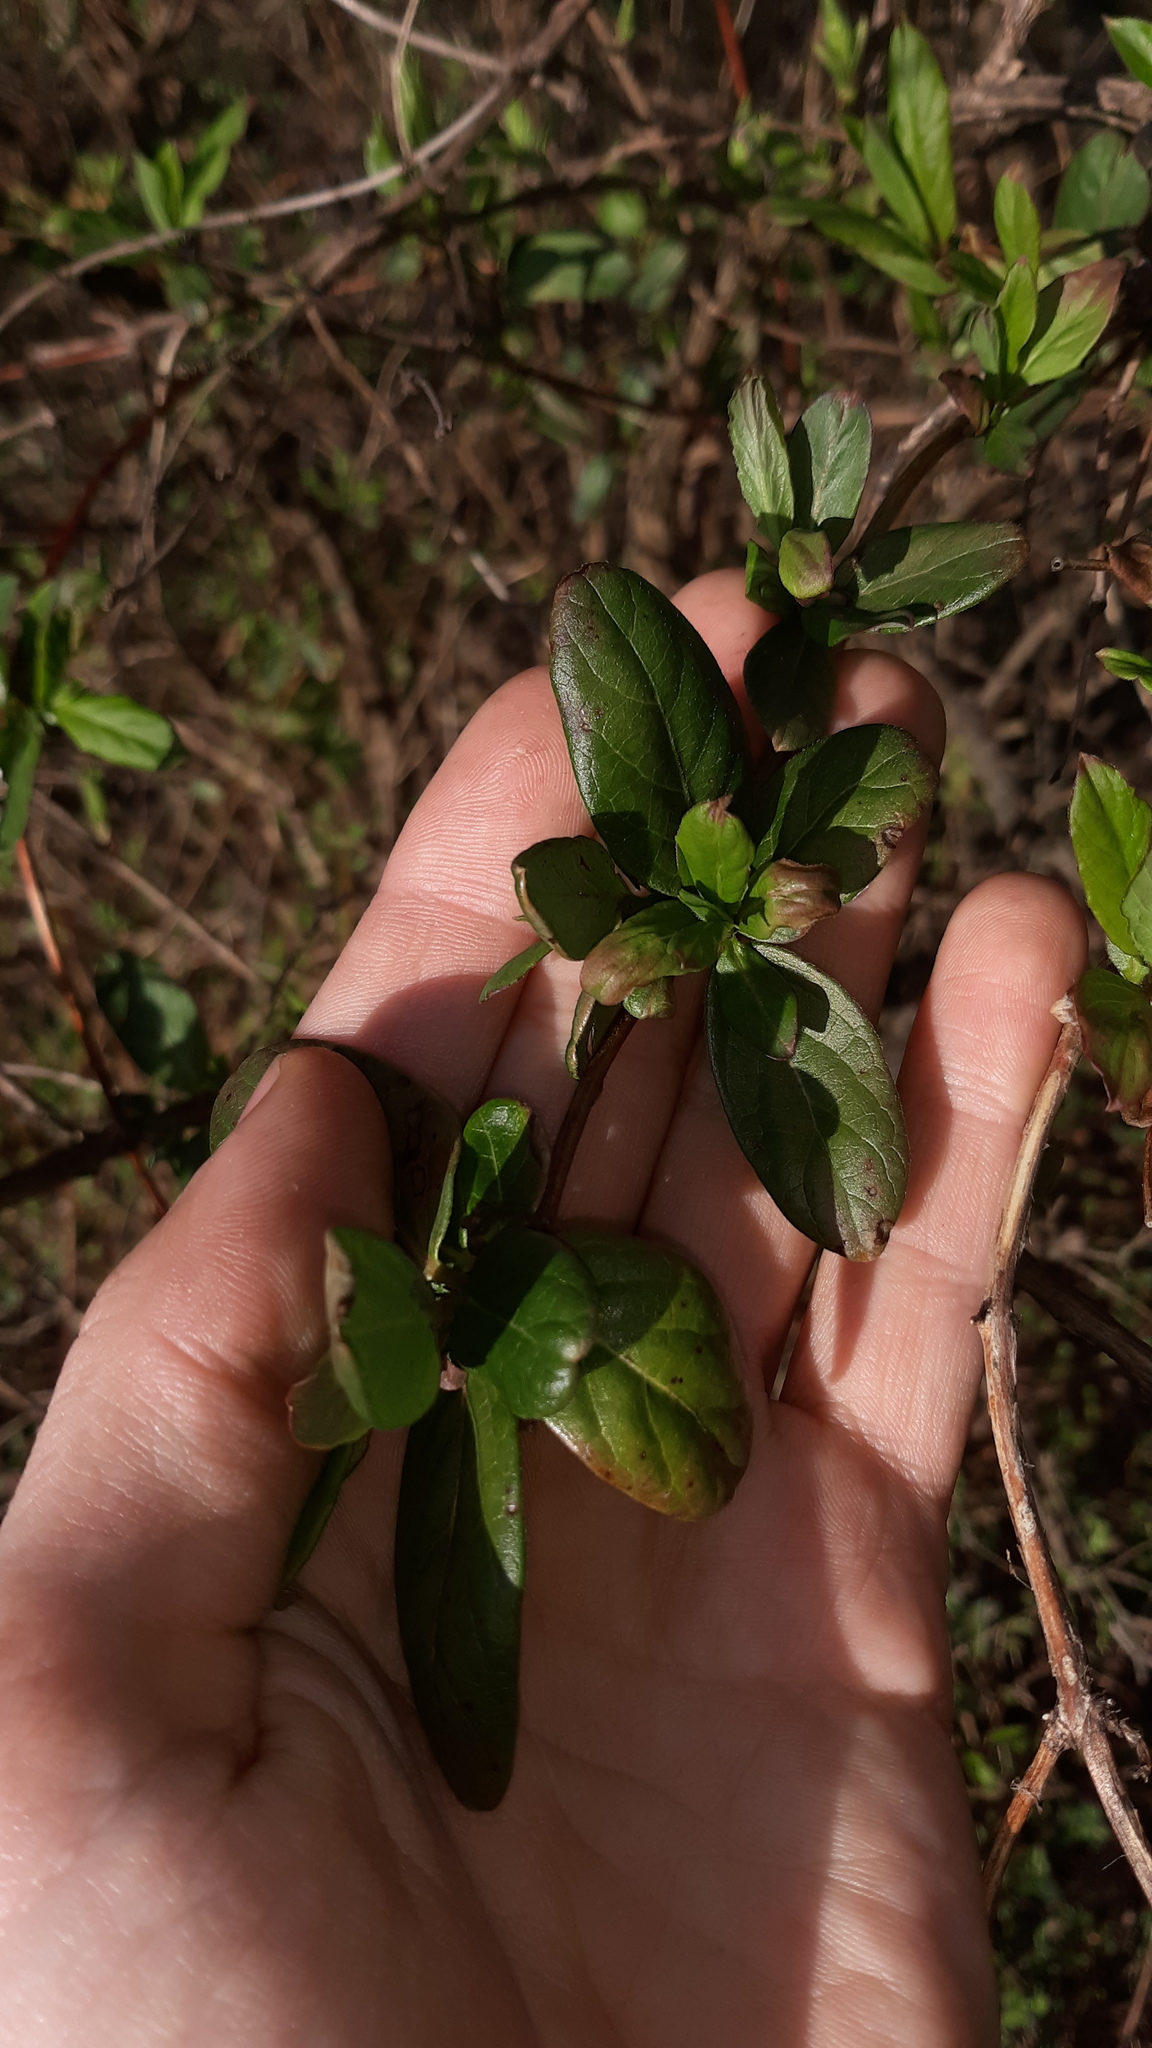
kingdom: Plantae
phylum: Tracheophyta
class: Magnoliopsida
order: Dipsacales
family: Caprifoliaceae
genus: Lonicera
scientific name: Lonicera japonica
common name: Japanese honeysuckle
